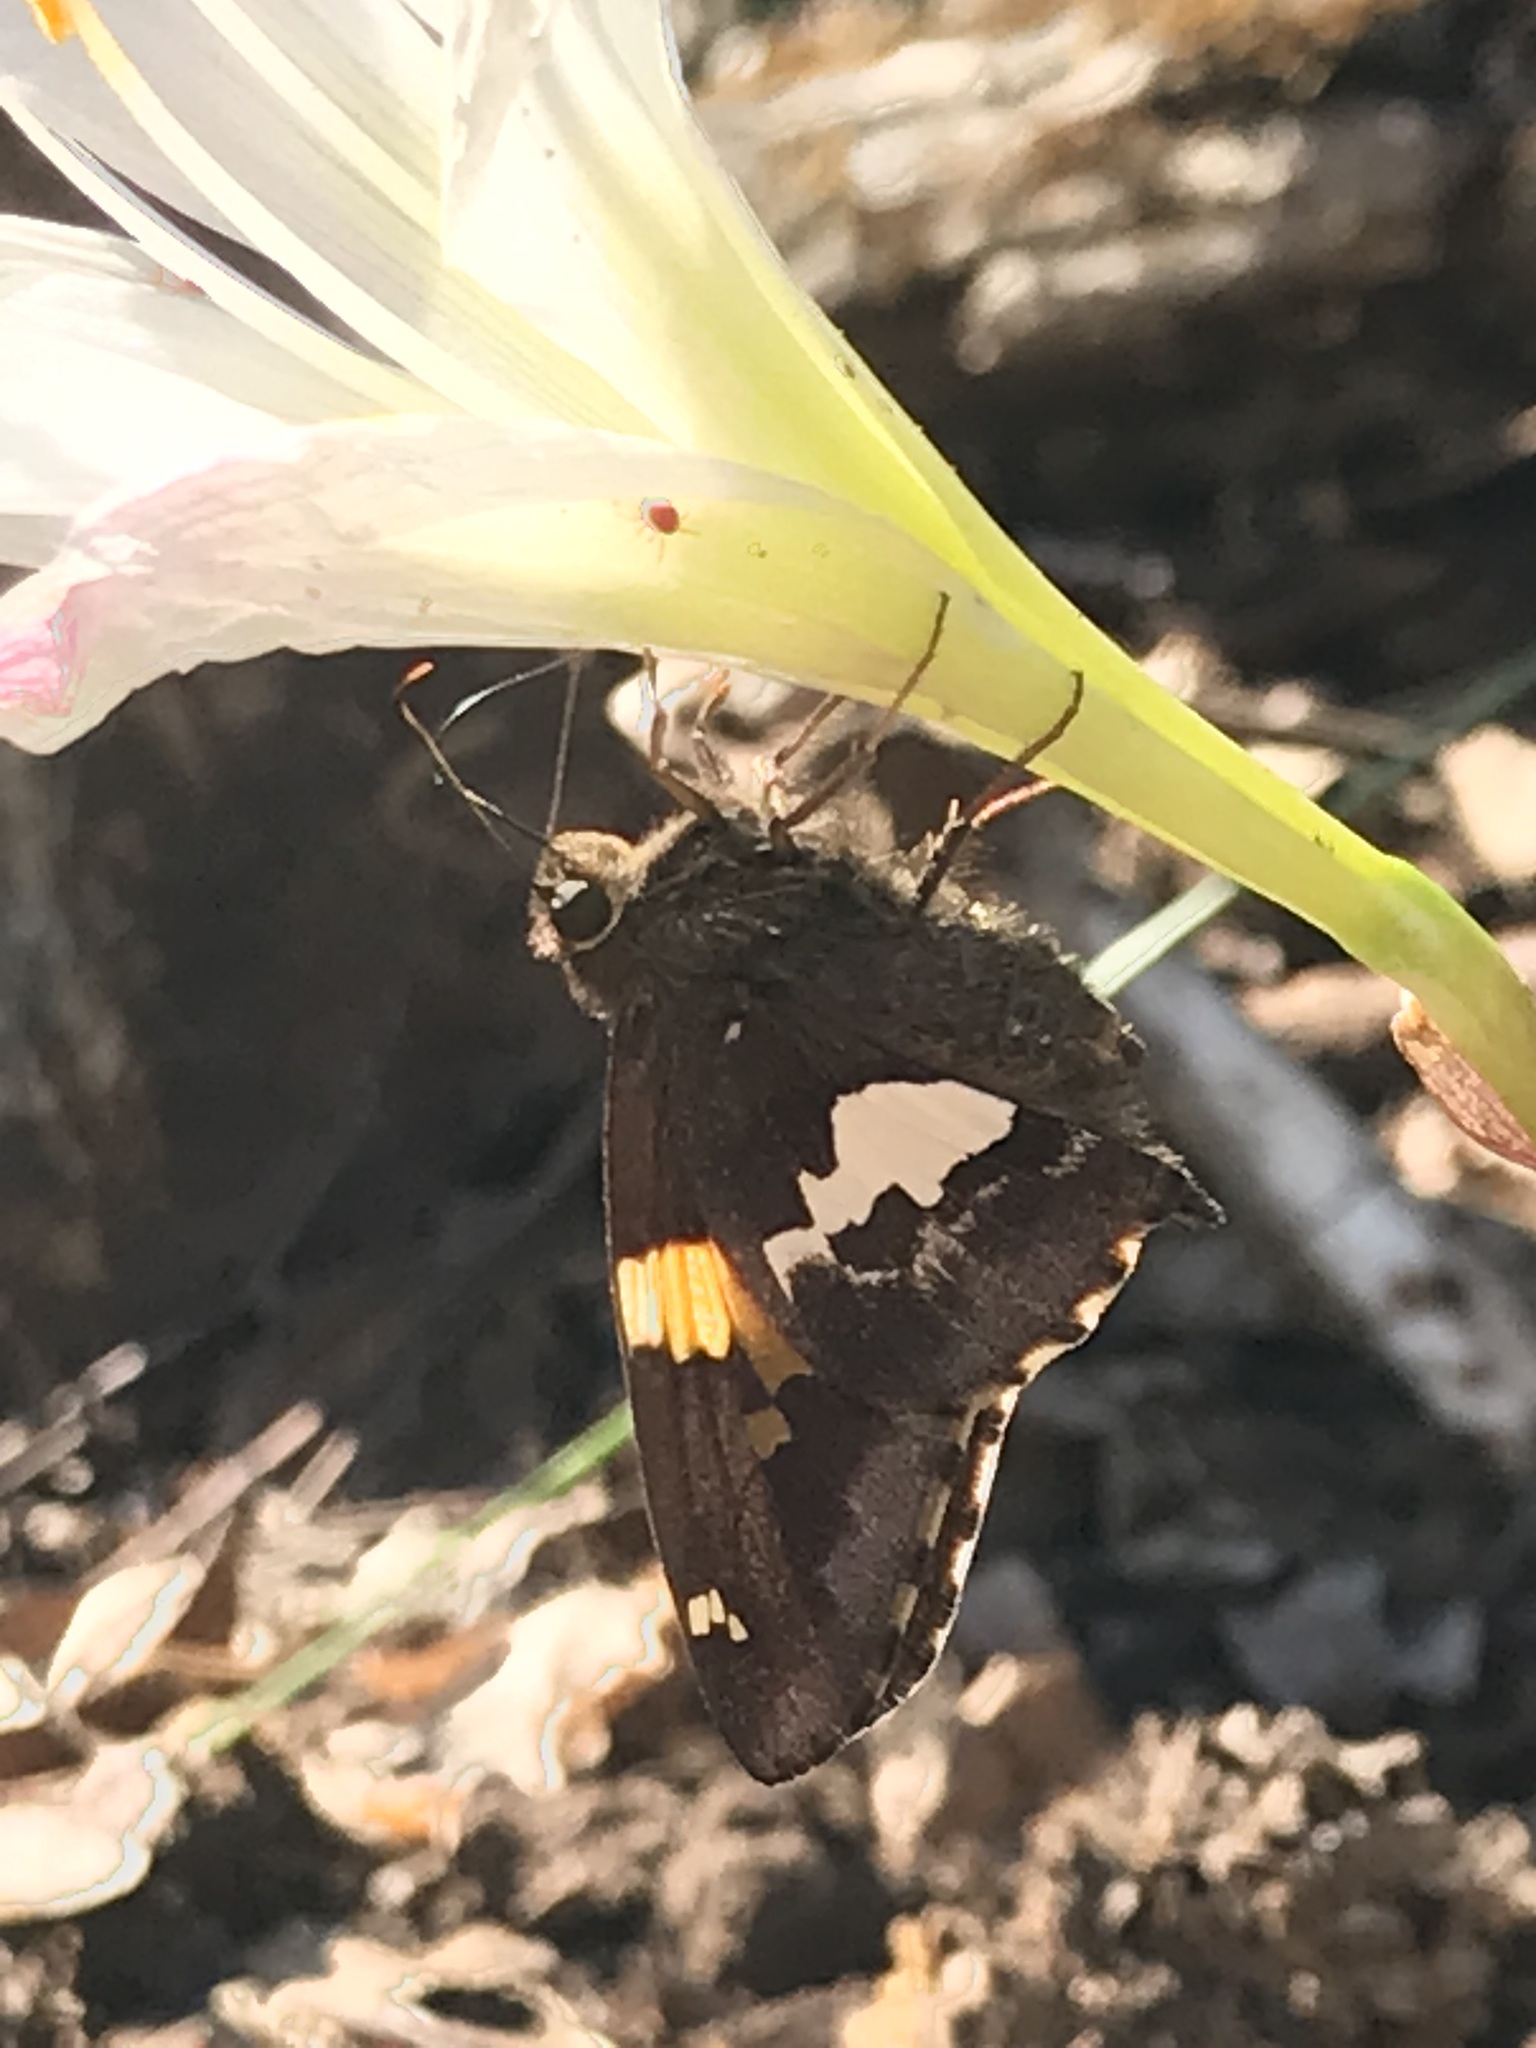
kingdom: Animalia
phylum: Arthropoda
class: Insecta
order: Lepidoptera
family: Hesperiidae
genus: Epargyreus
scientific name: Epargyreus clarus
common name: Silver-spotted skipper
